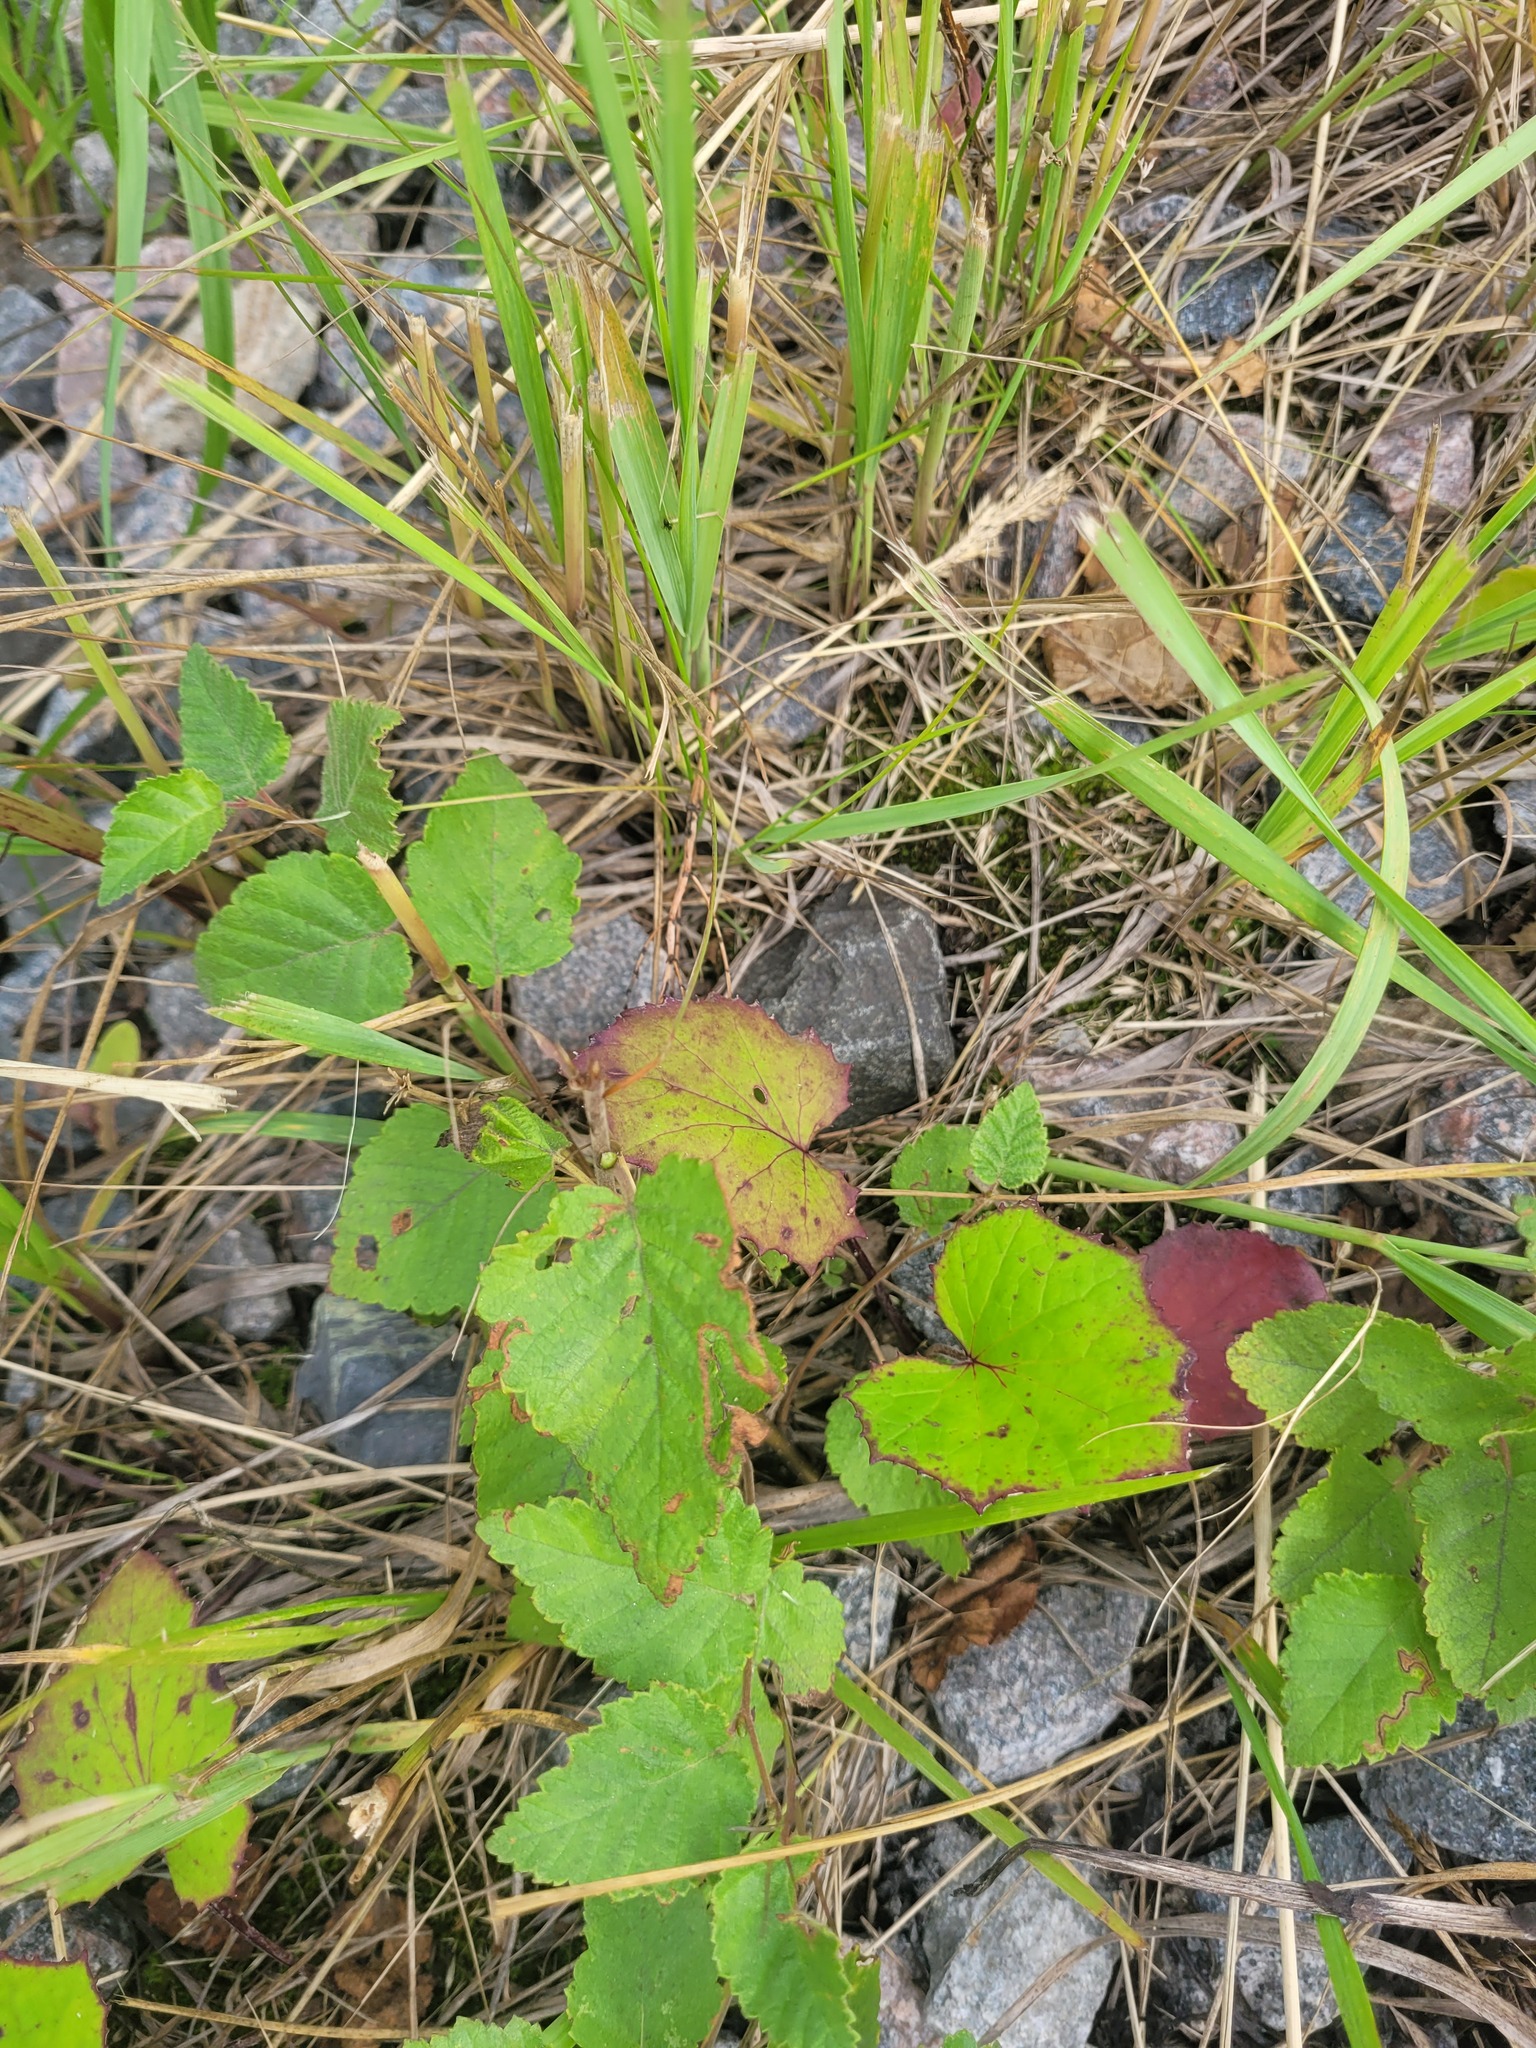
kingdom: Plantae
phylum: Tracheophyta
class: Magnoliopsida
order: Asterales
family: Asteraceae
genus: Tussilago
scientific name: Tussilago farfara
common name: Coltsfoot
